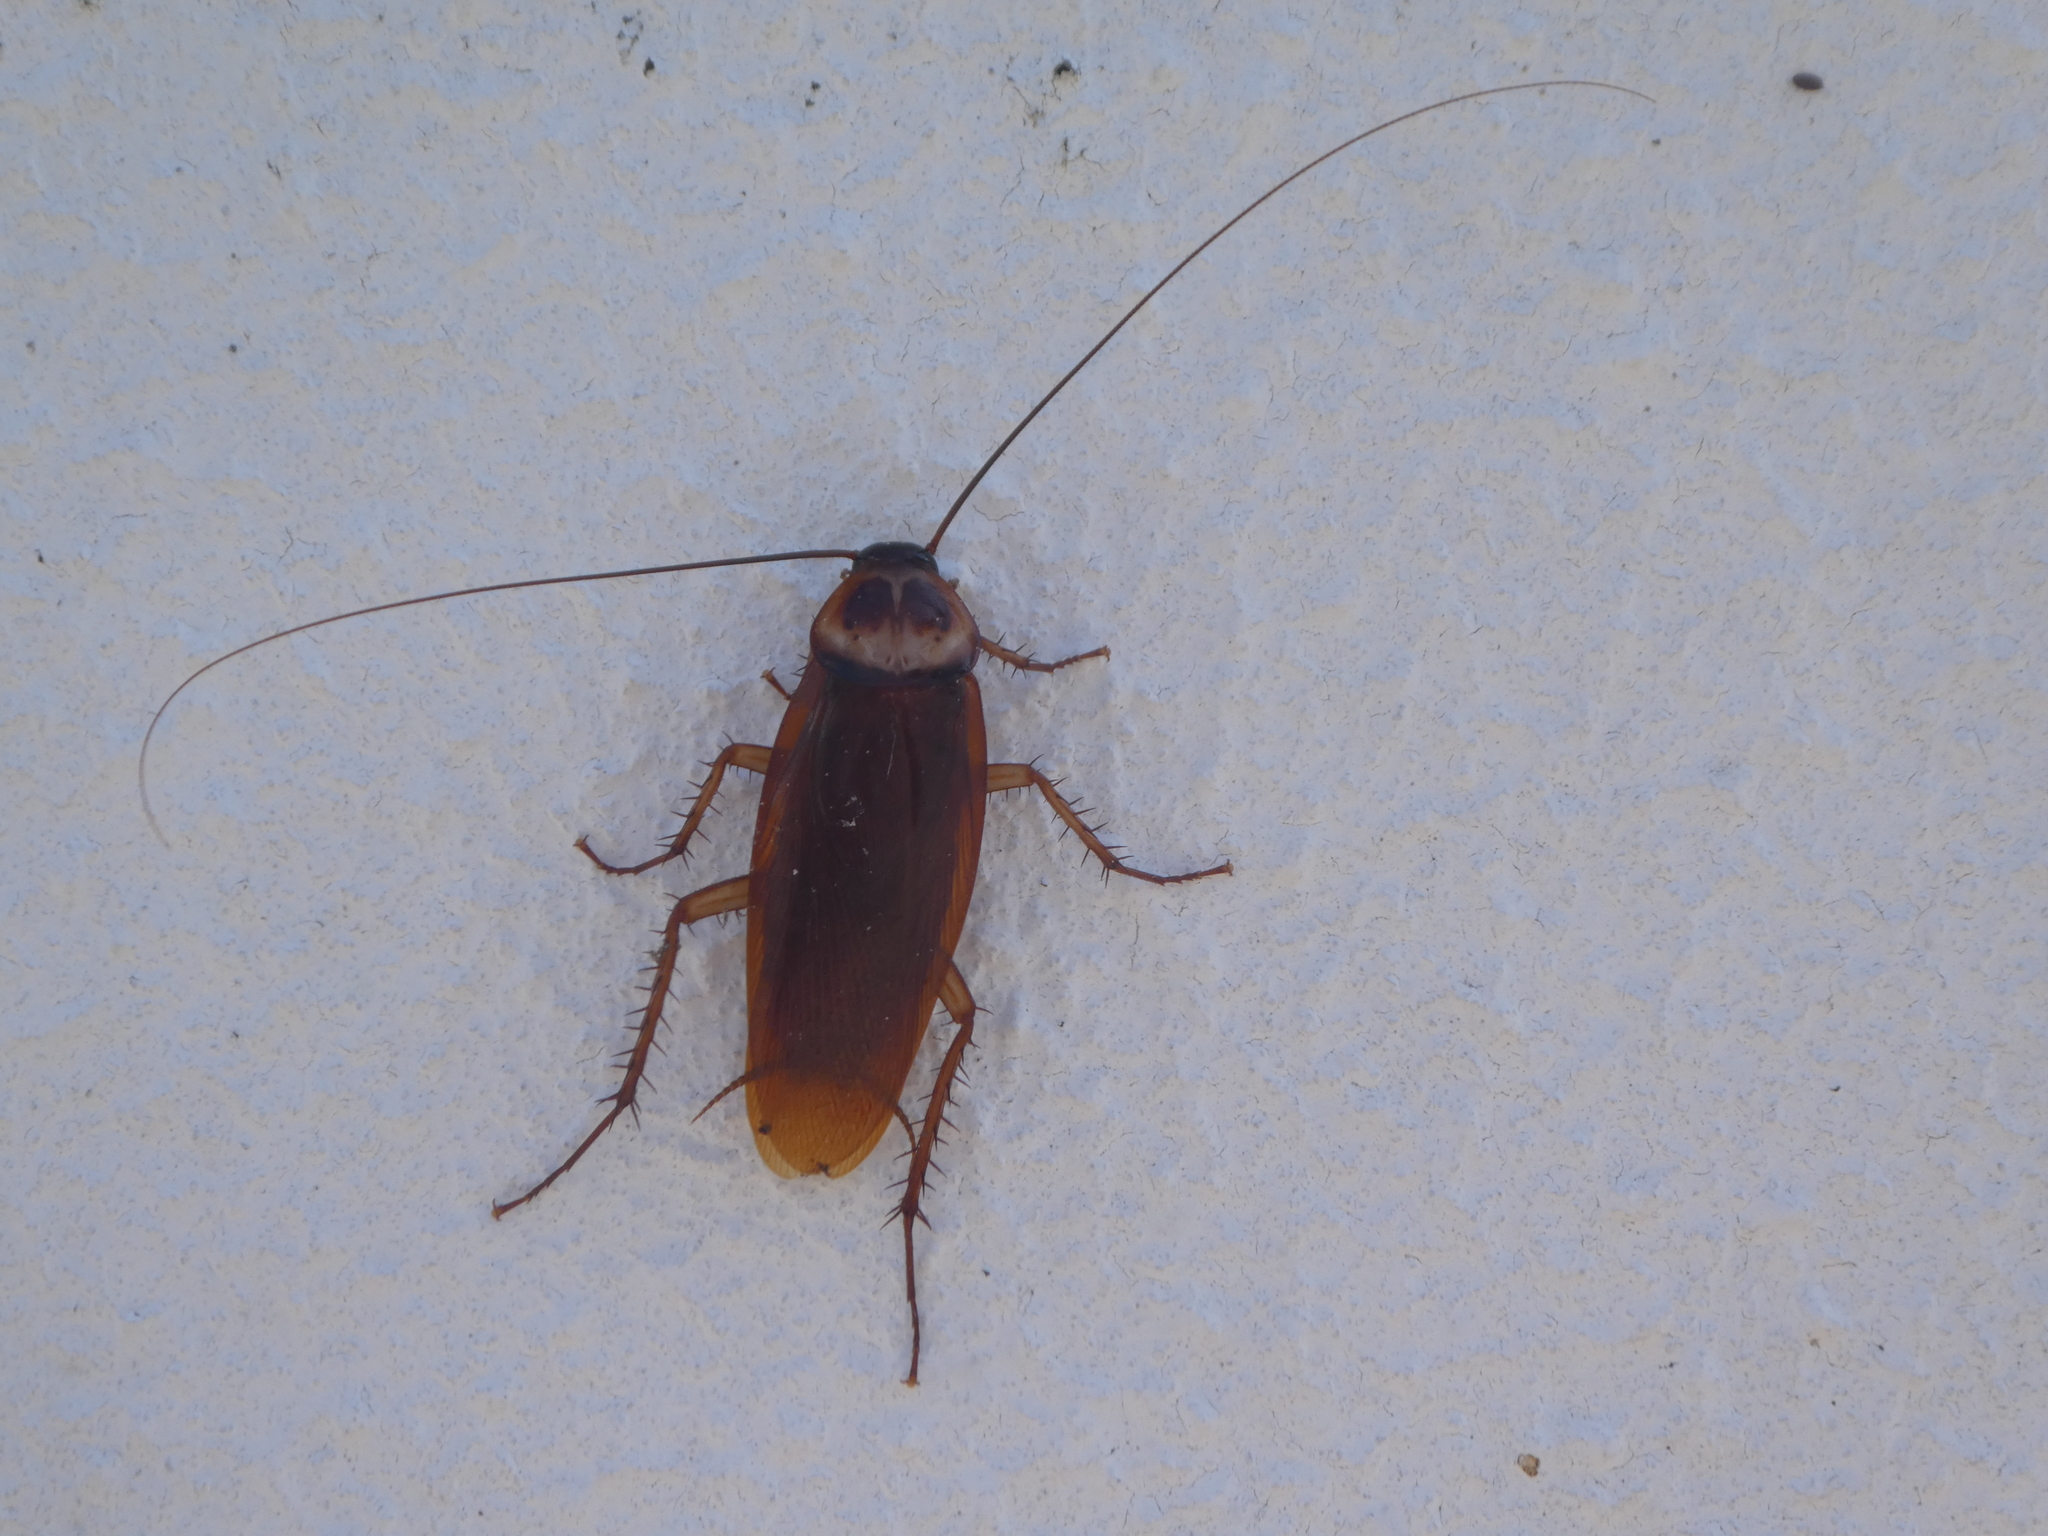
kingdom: Animalia
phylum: Arthropoda
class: Insecta
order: Blattodea
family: Blattidae
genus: Periplaneta
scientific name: Periplaneta americana
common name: American cockroach
